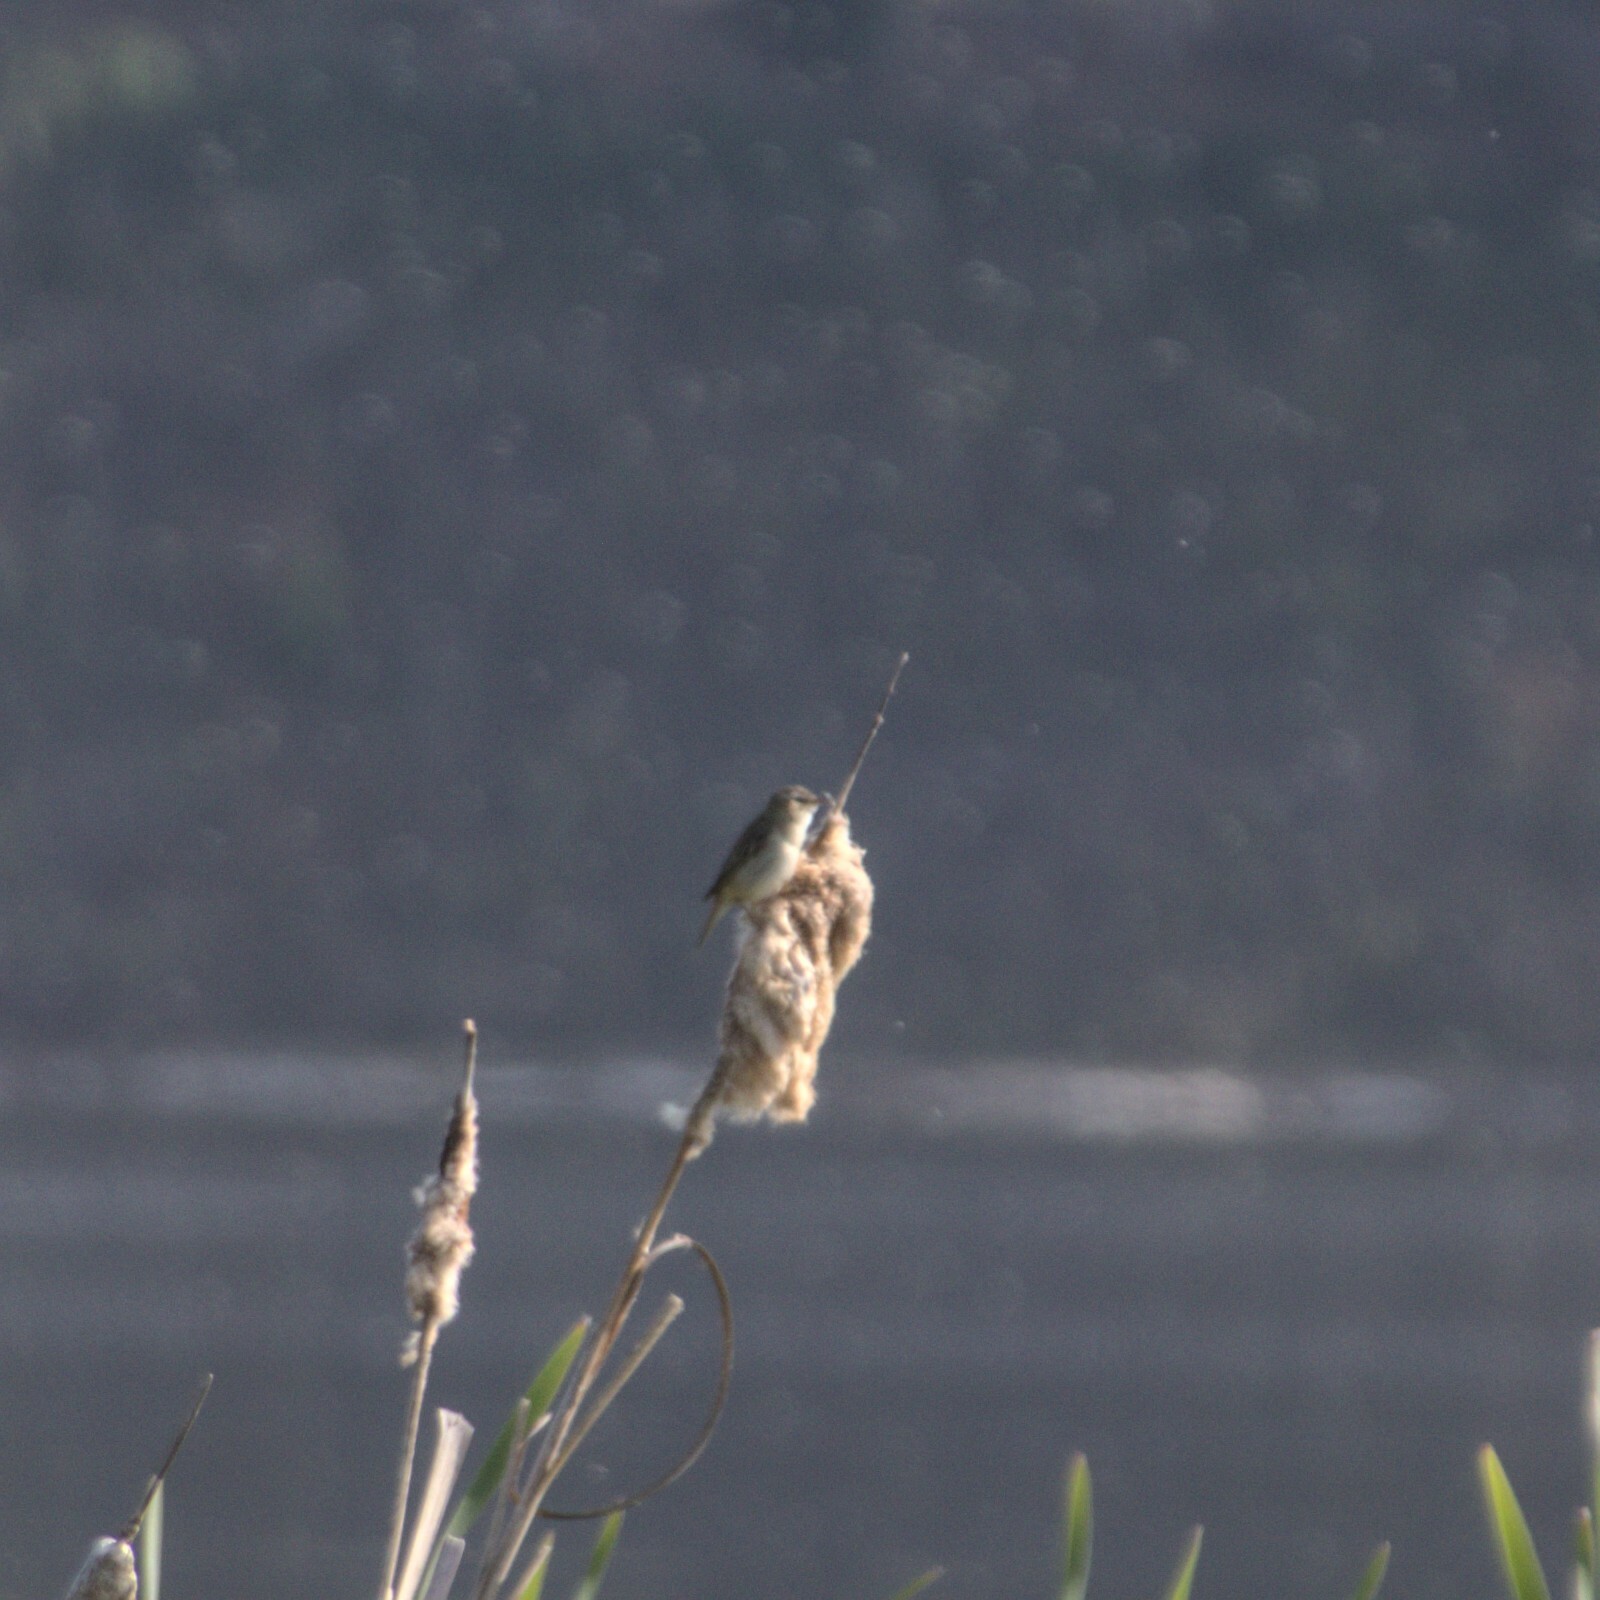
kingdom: Animalia
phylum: Chordata
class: Aves
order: Passeriformes
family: Acrocephalidae
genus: Acrocephalus
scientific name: Acrocephalus schoenobaenus
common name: Sedge warbler
